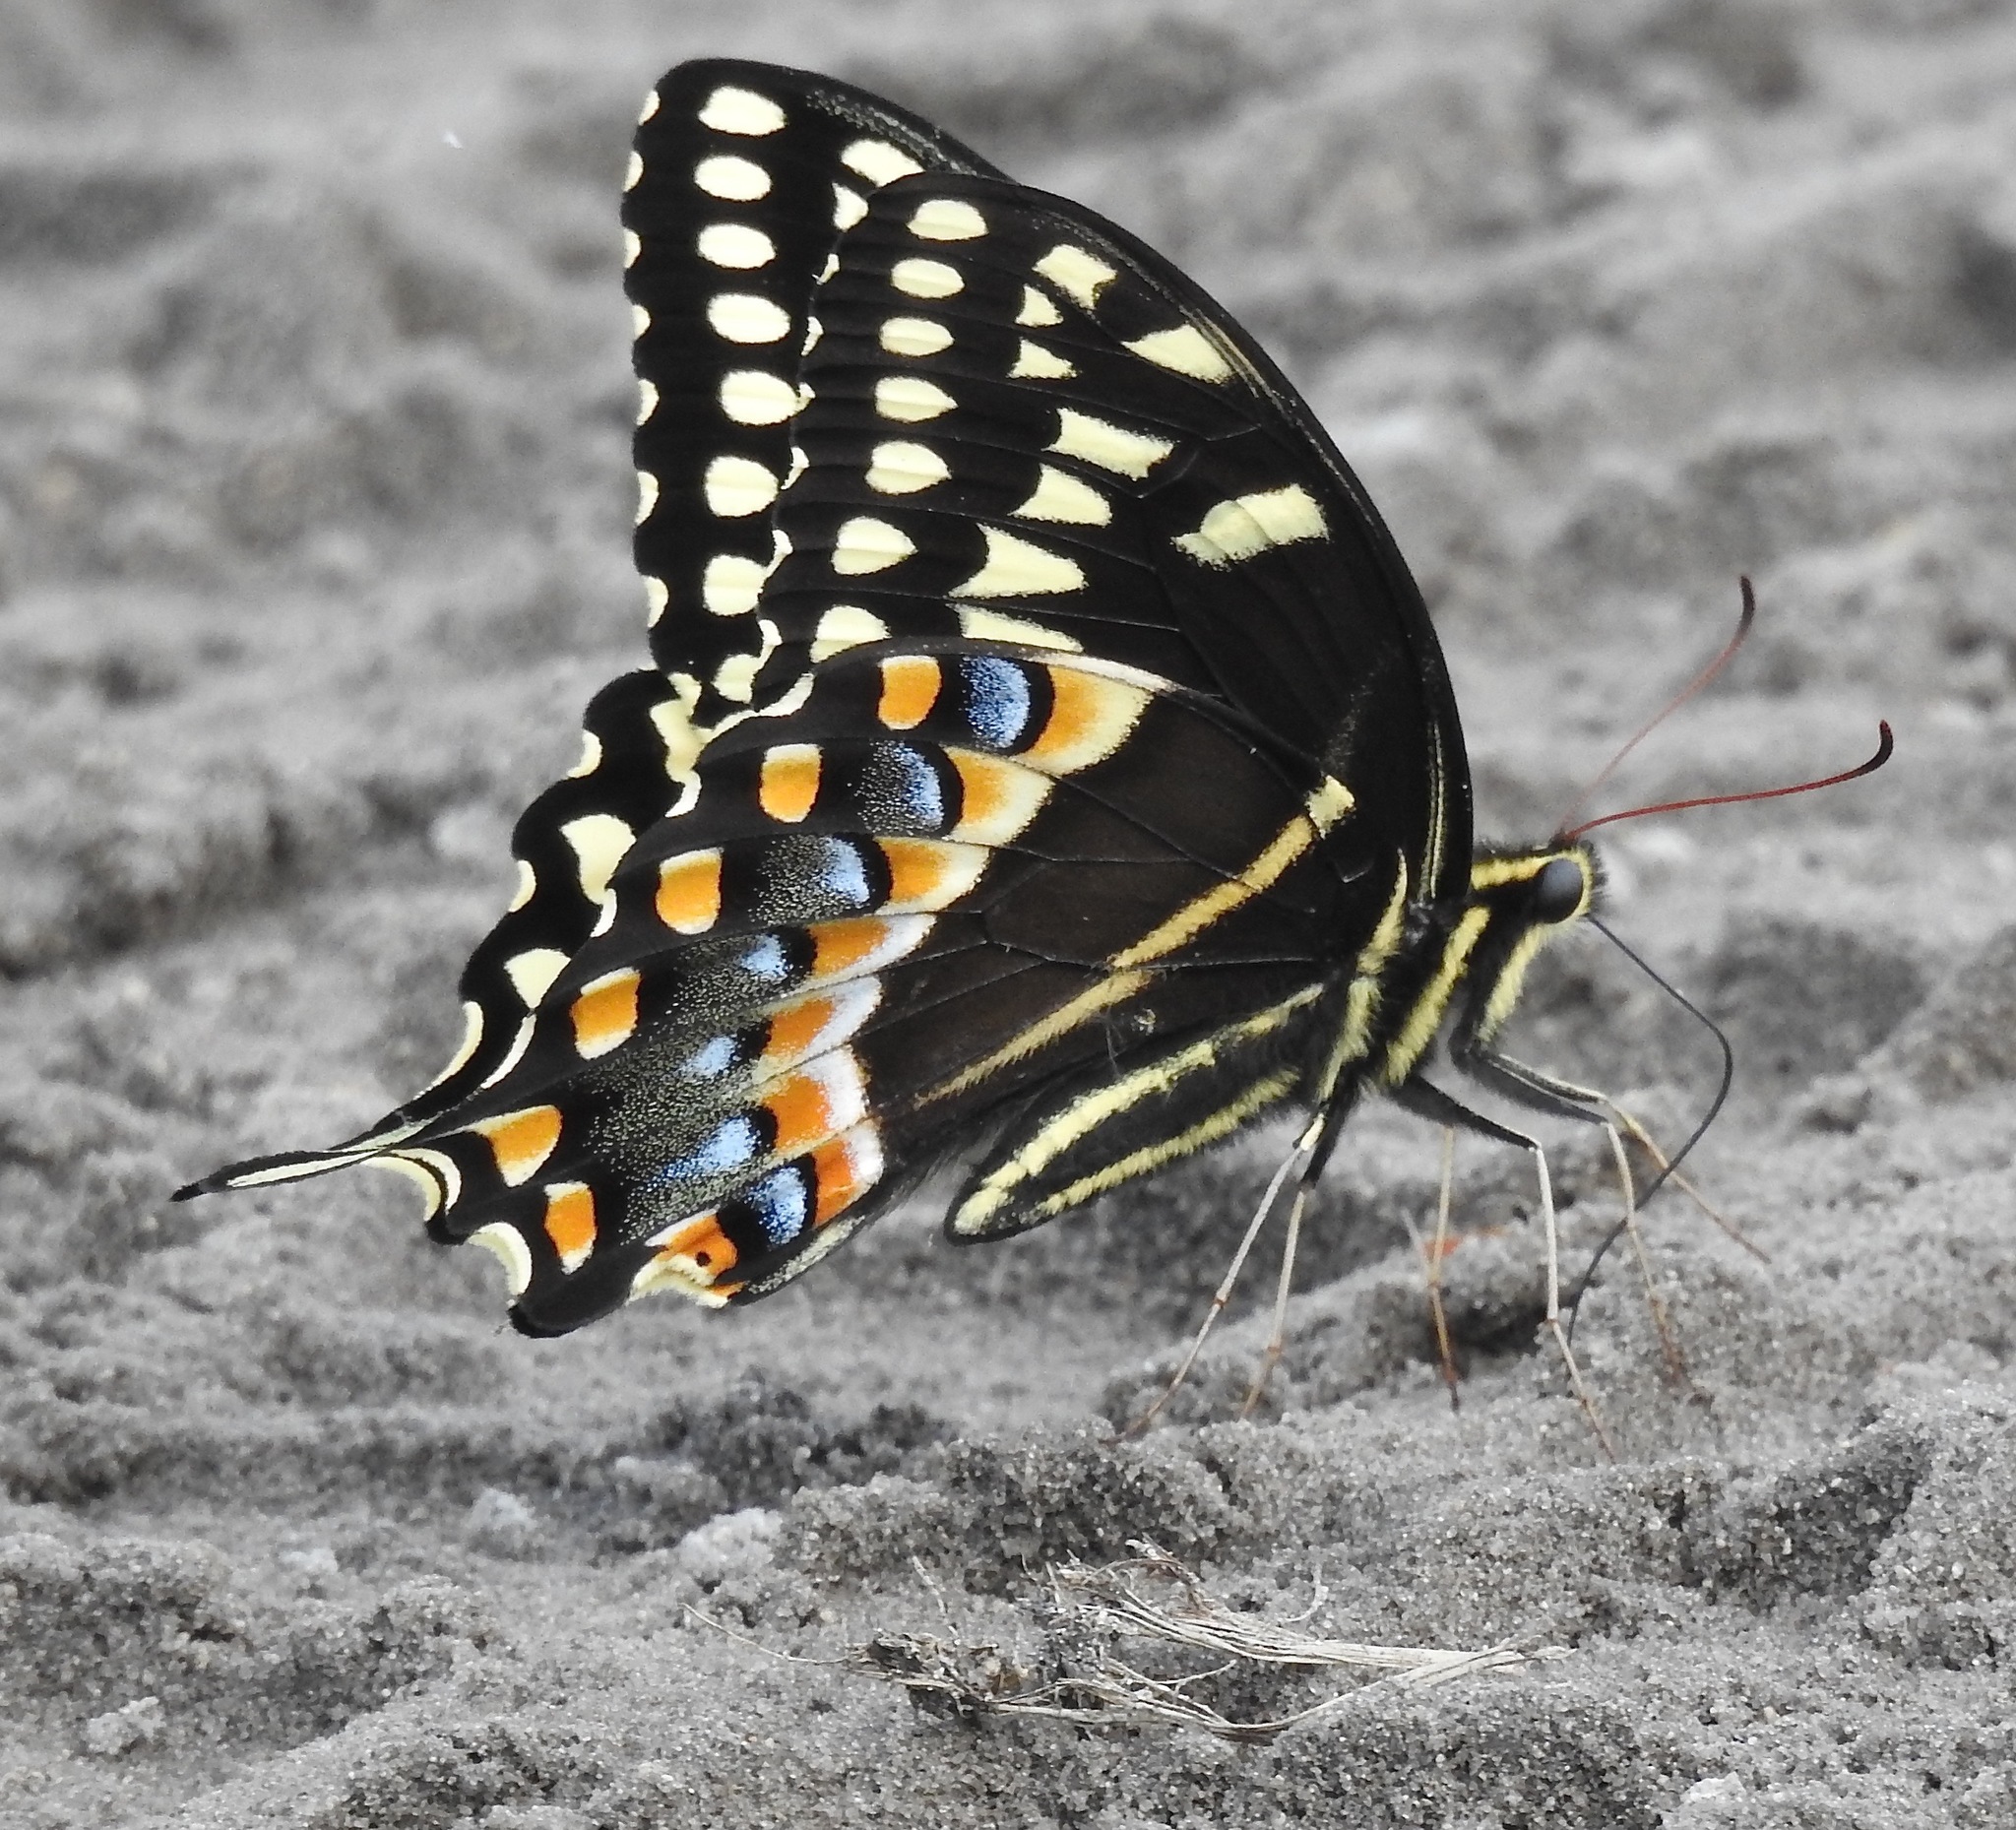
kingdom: Animalia
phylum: Arthropoda
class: Insecta
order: Lepidoptera
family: Papilionidae
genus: Papilio
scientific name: Papilio palamedes
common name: Palamedes swallowtail
